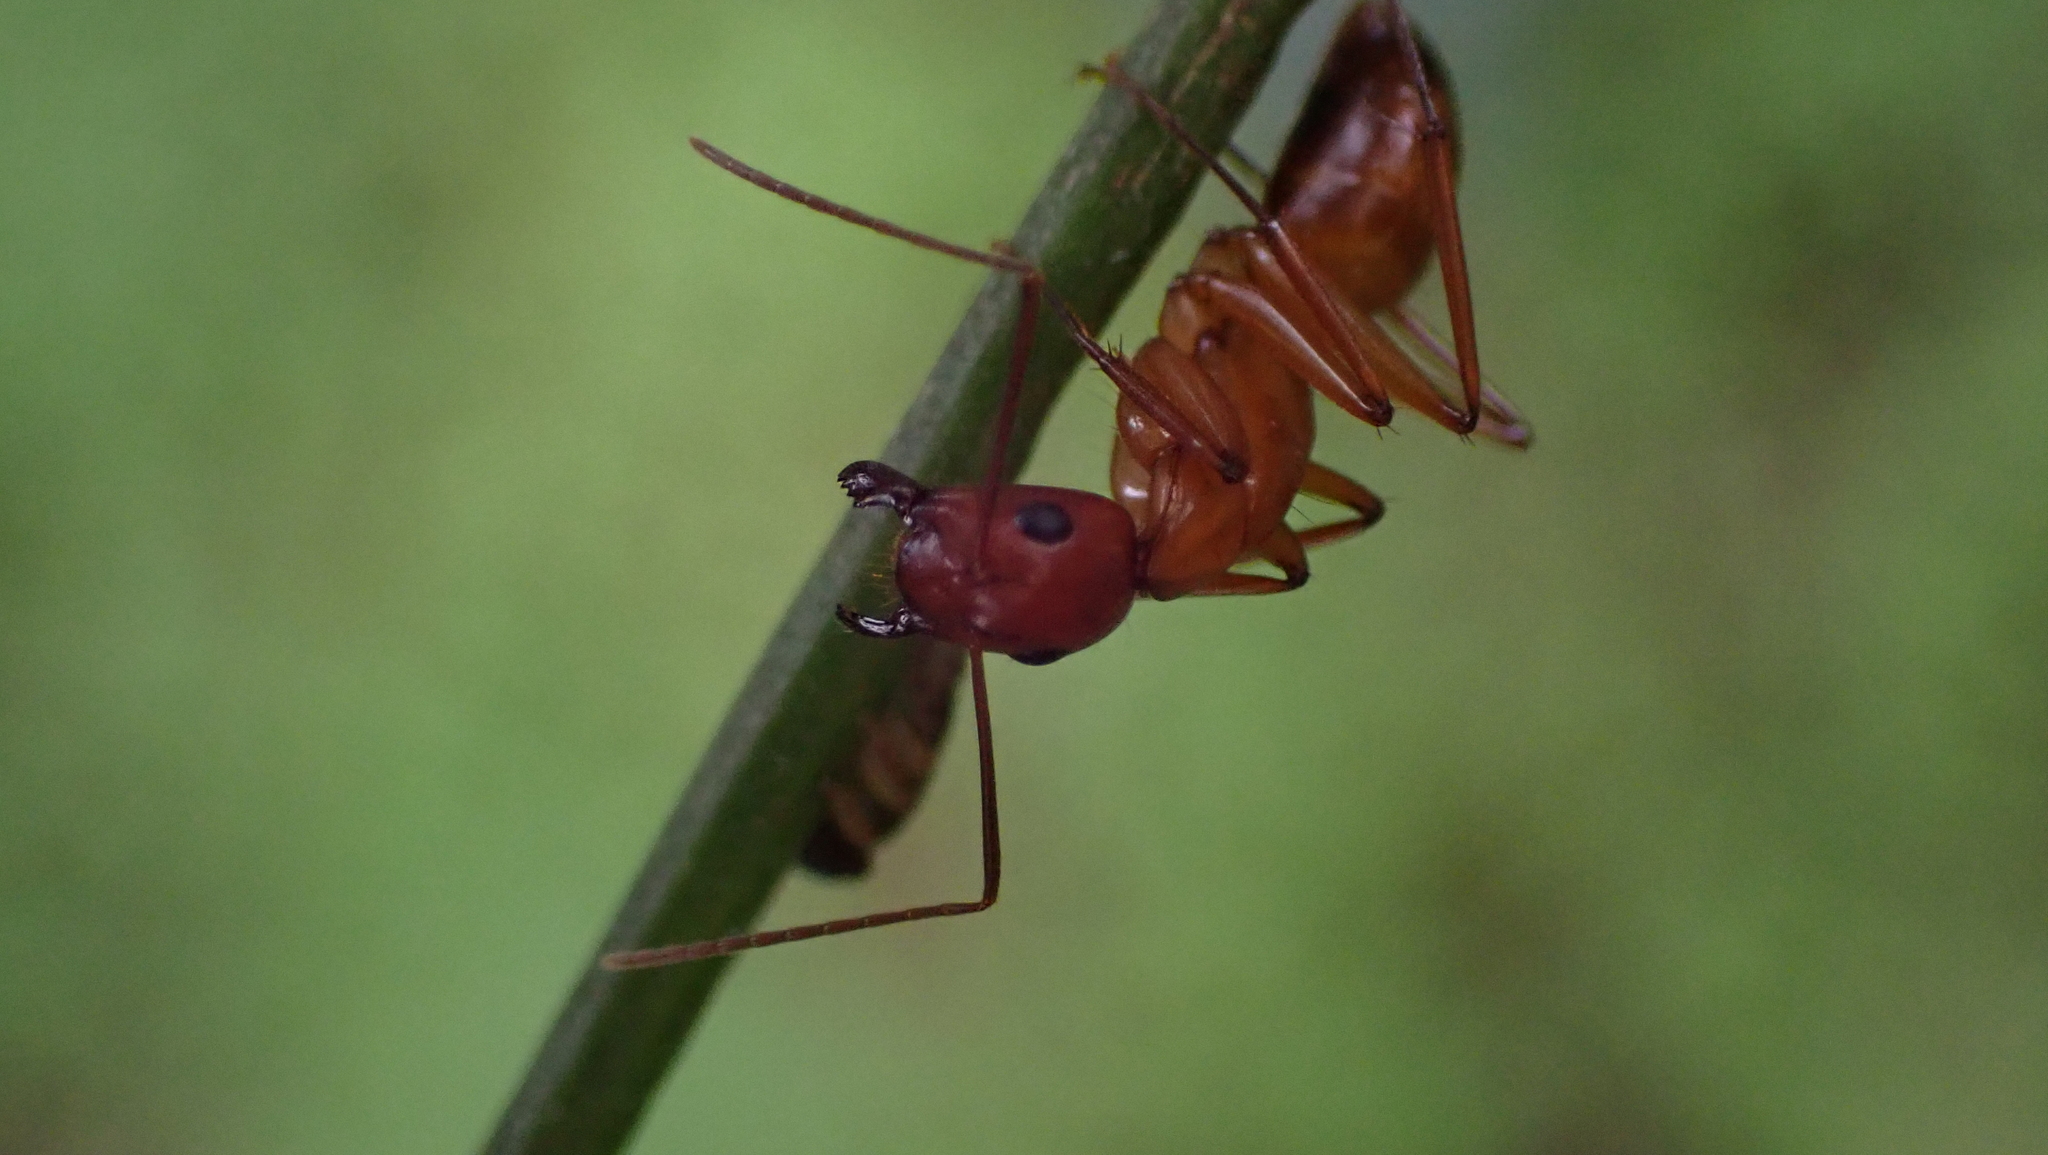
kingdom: Animalia
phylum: Arthropoda
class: Insecta
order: Hymenoptera
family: Formicidae
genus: Camponotus
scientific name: Camponotus castaneus
